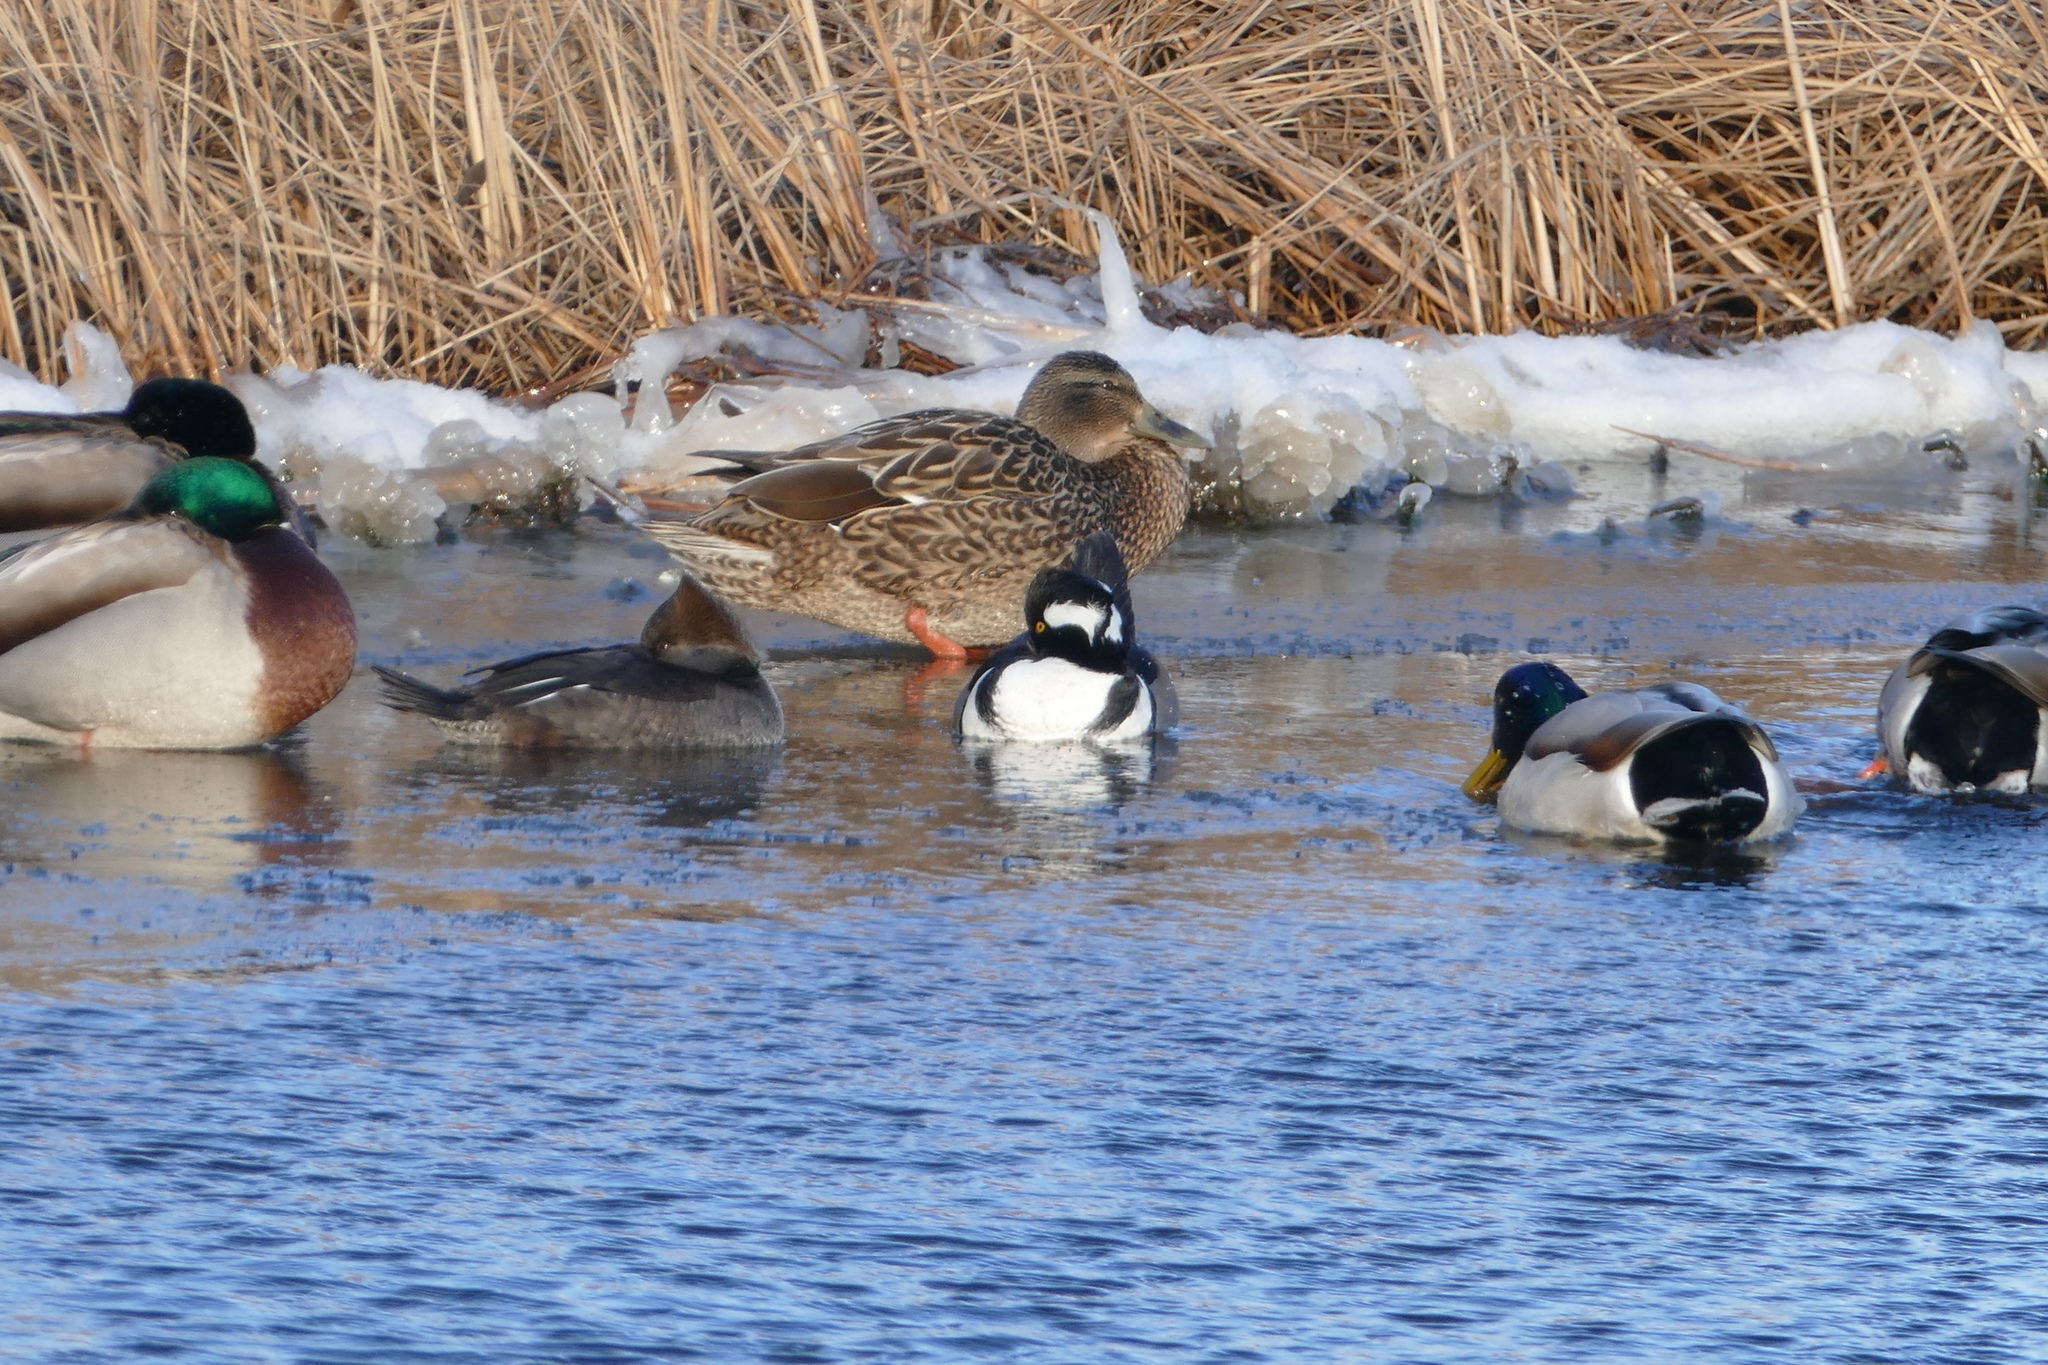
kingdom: Animalia
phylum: Chordata
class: Aves
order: Anseriformes
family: Anatidae
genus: Lophodytes
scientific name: Lophodytes cucullatus
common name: Hooded merganser
